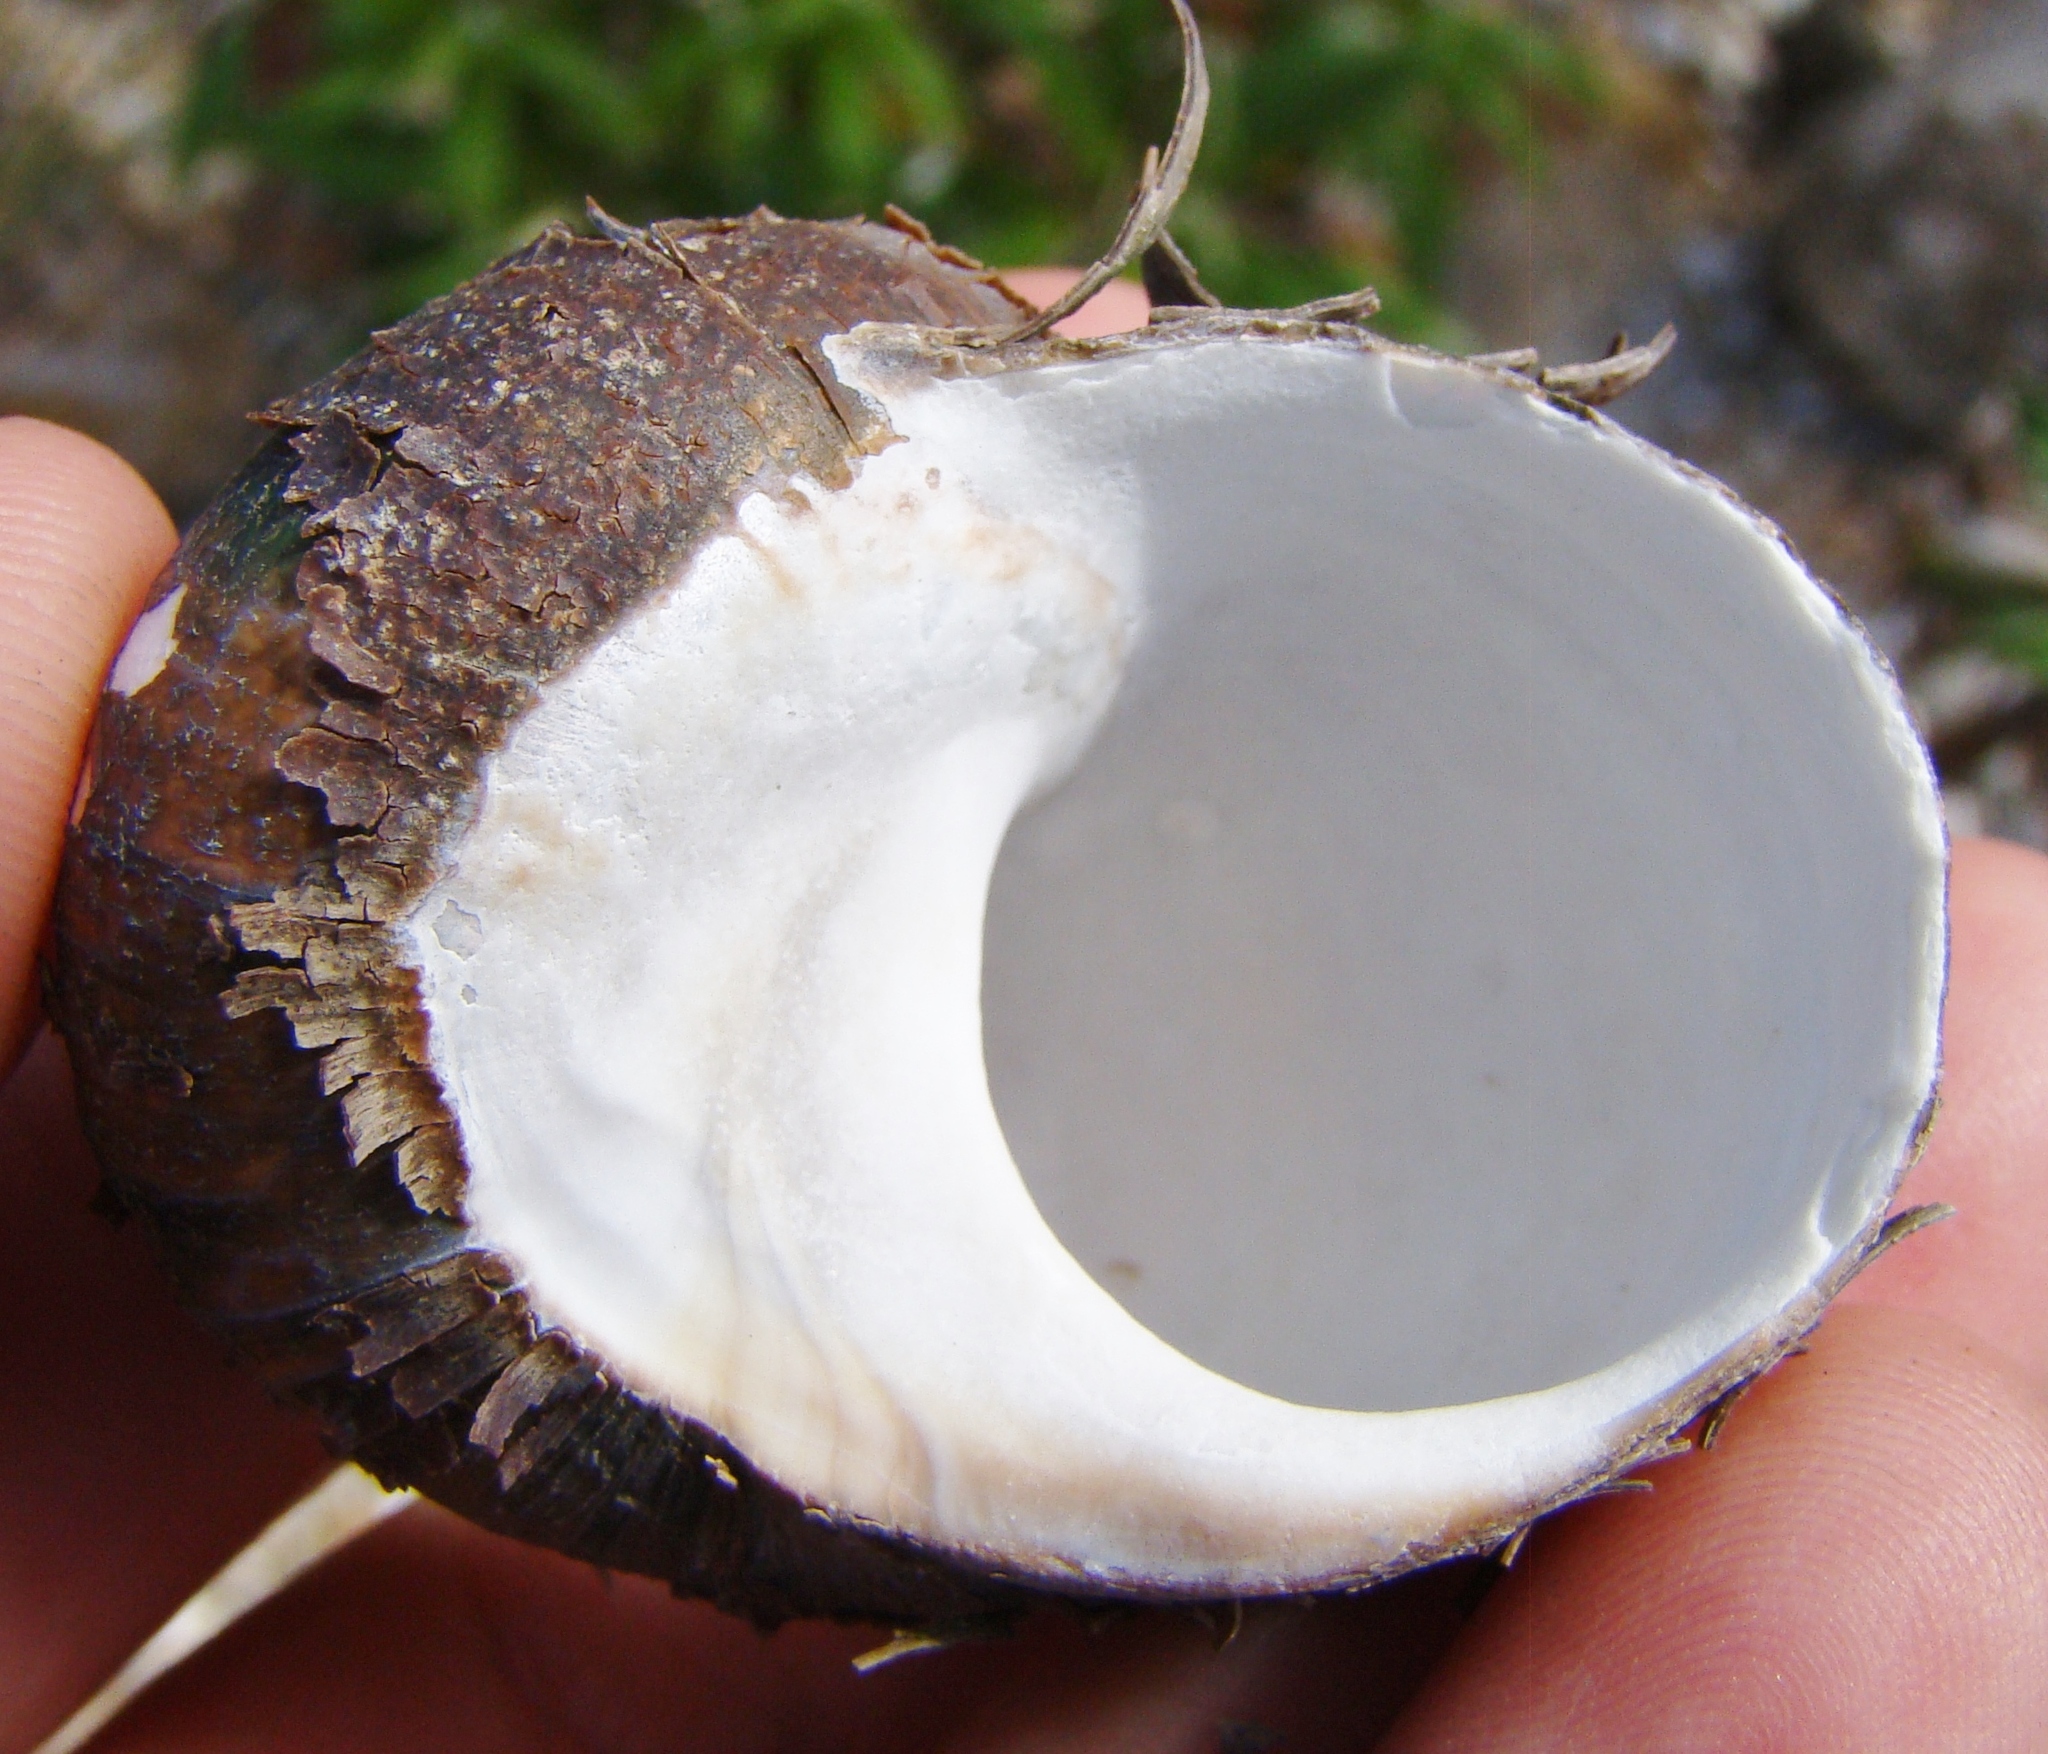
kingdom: Animalia
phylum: Mollusca
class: Gastropoda
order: Trochida
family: Turbinidae
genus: Lunella
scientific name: Lunella smaragda
